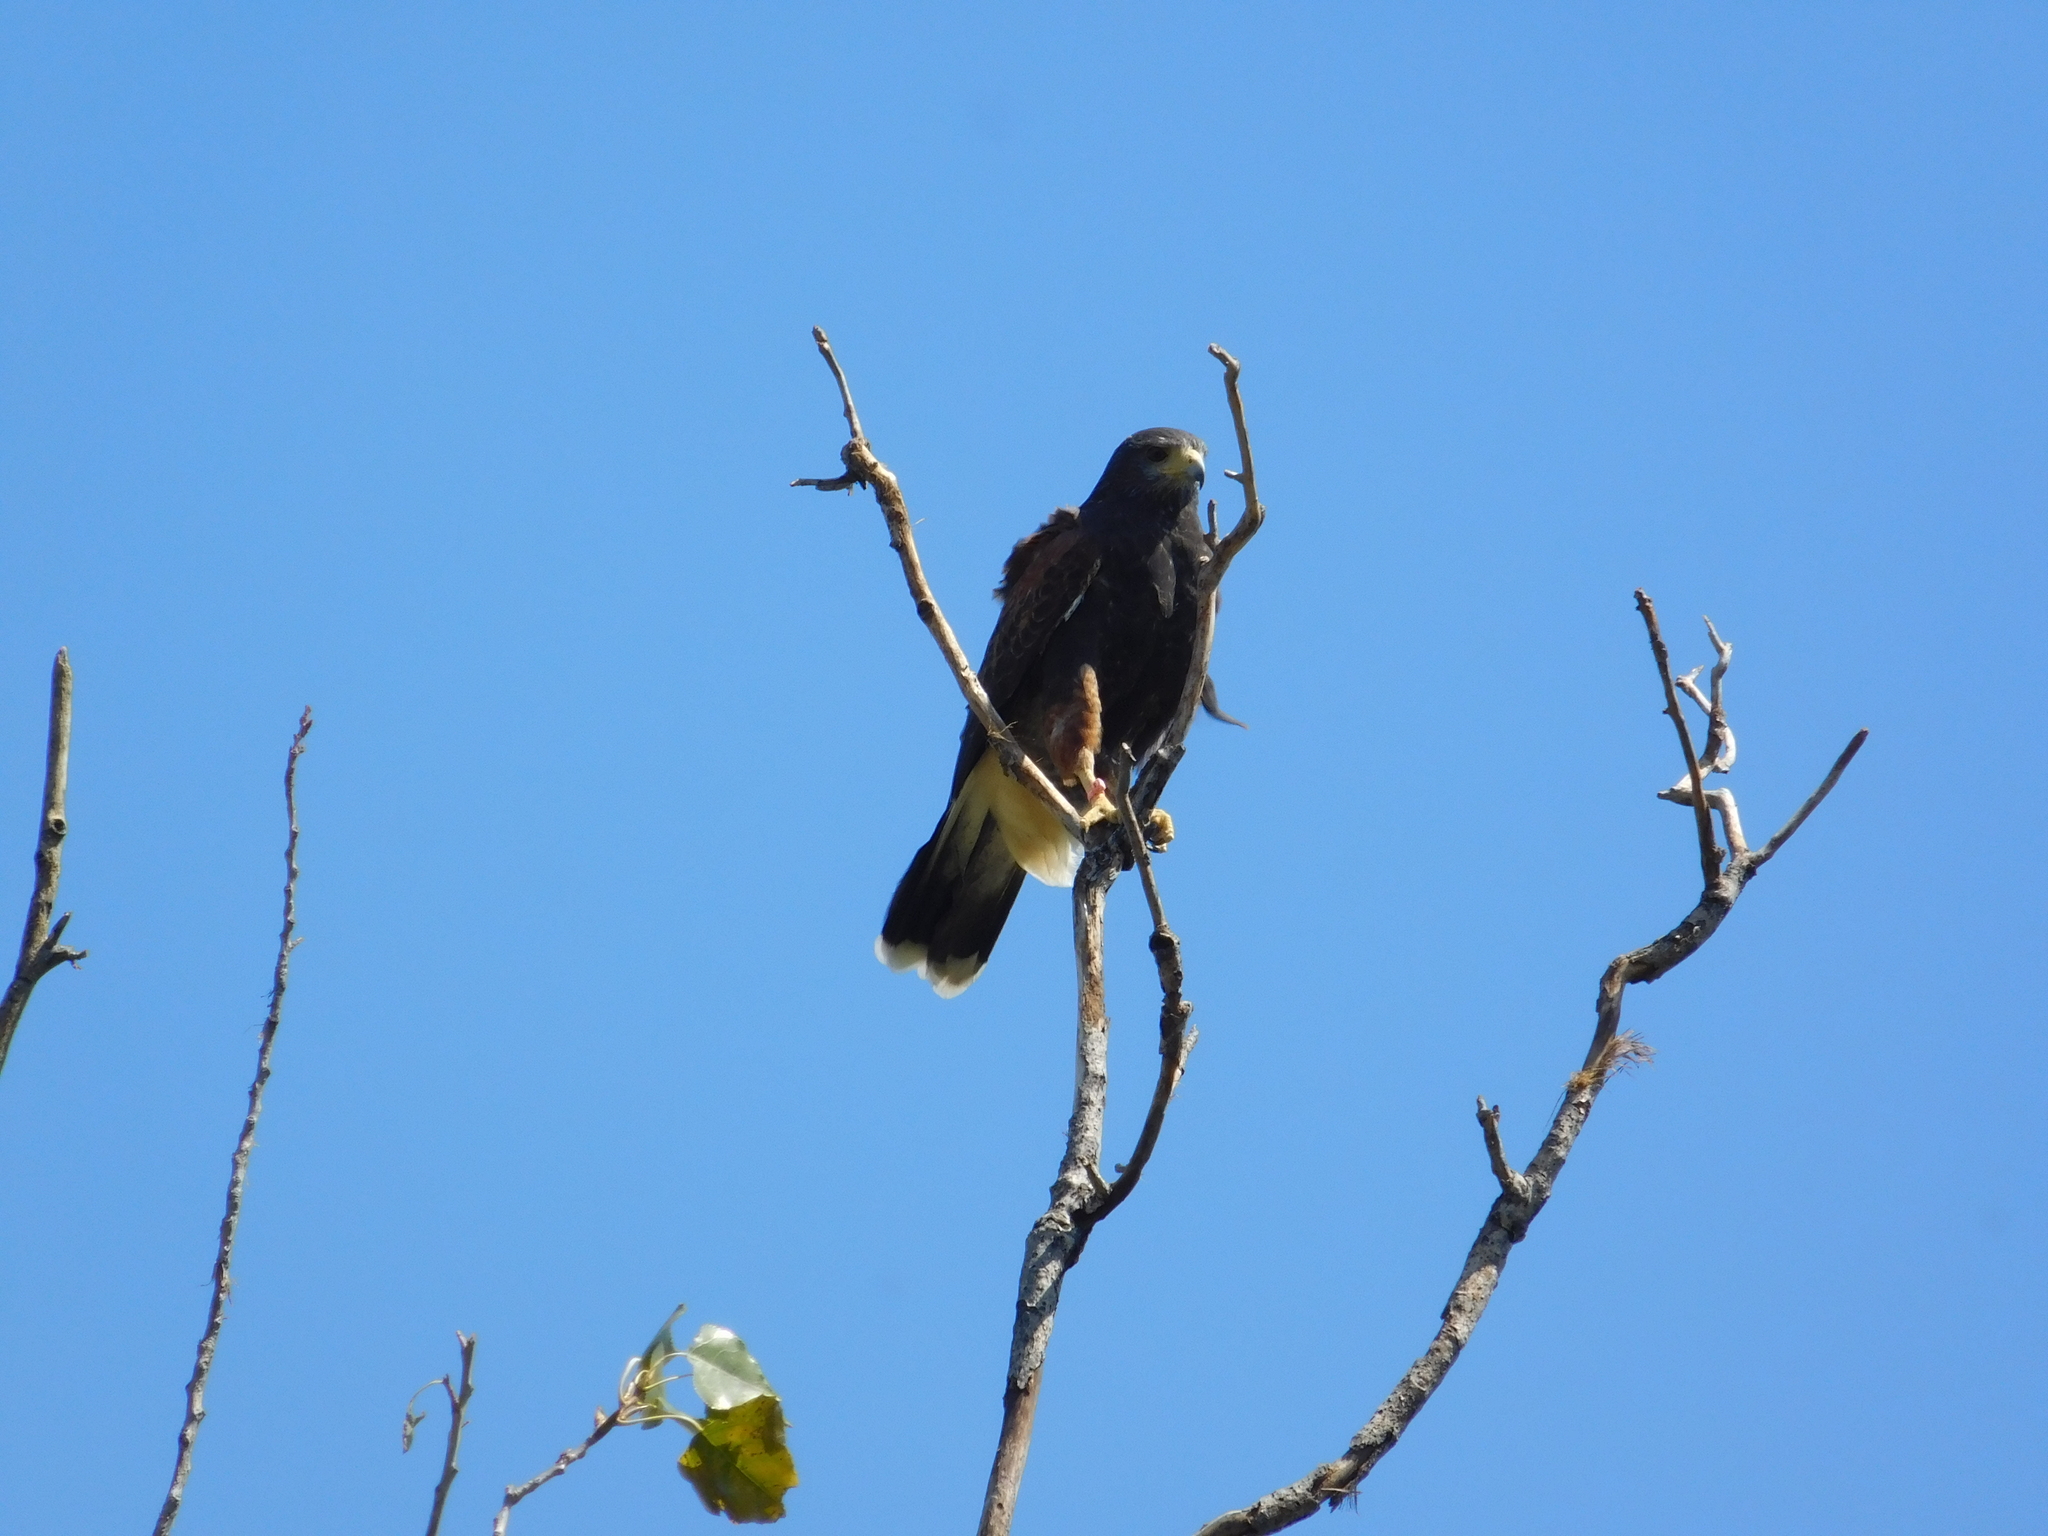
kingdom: Animalia
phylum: Chordata
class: Aves
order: Accipitriformes
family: Accipitridae
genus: Parabuteo
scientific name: Parabuteo unicinctus
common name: Harris's hawk
